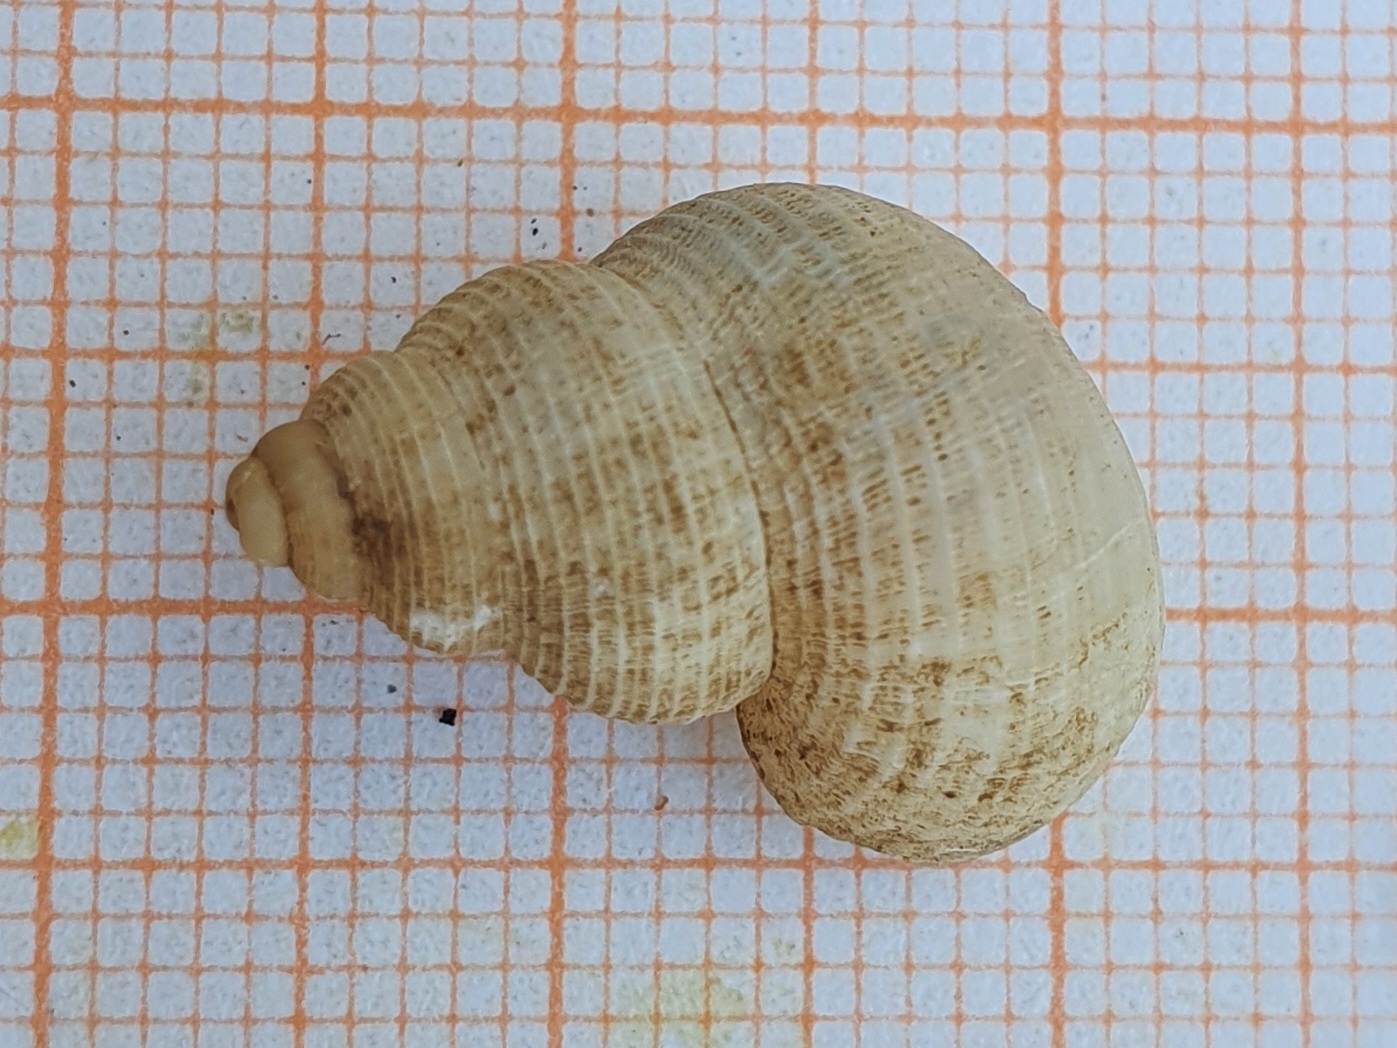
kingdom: Animalia
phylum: Mollusca
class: Gastropoda
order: Littorinimorpha
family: Pomatiidae
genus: Tudorella
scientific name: Tudorella sulcata
